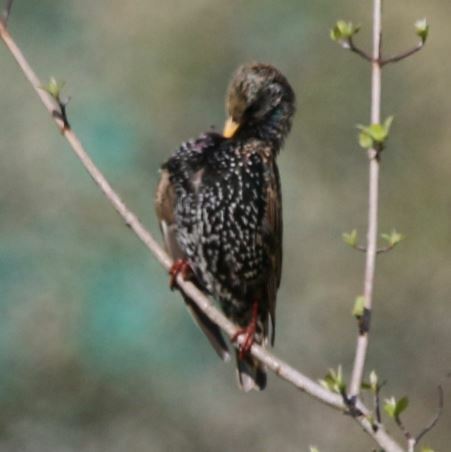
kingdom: Animalia
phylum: Chordata
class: Aves
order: Passeriformes
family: Sturnidae
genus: Sturnus
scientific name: Sturnus vulgaris
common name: Common starling
